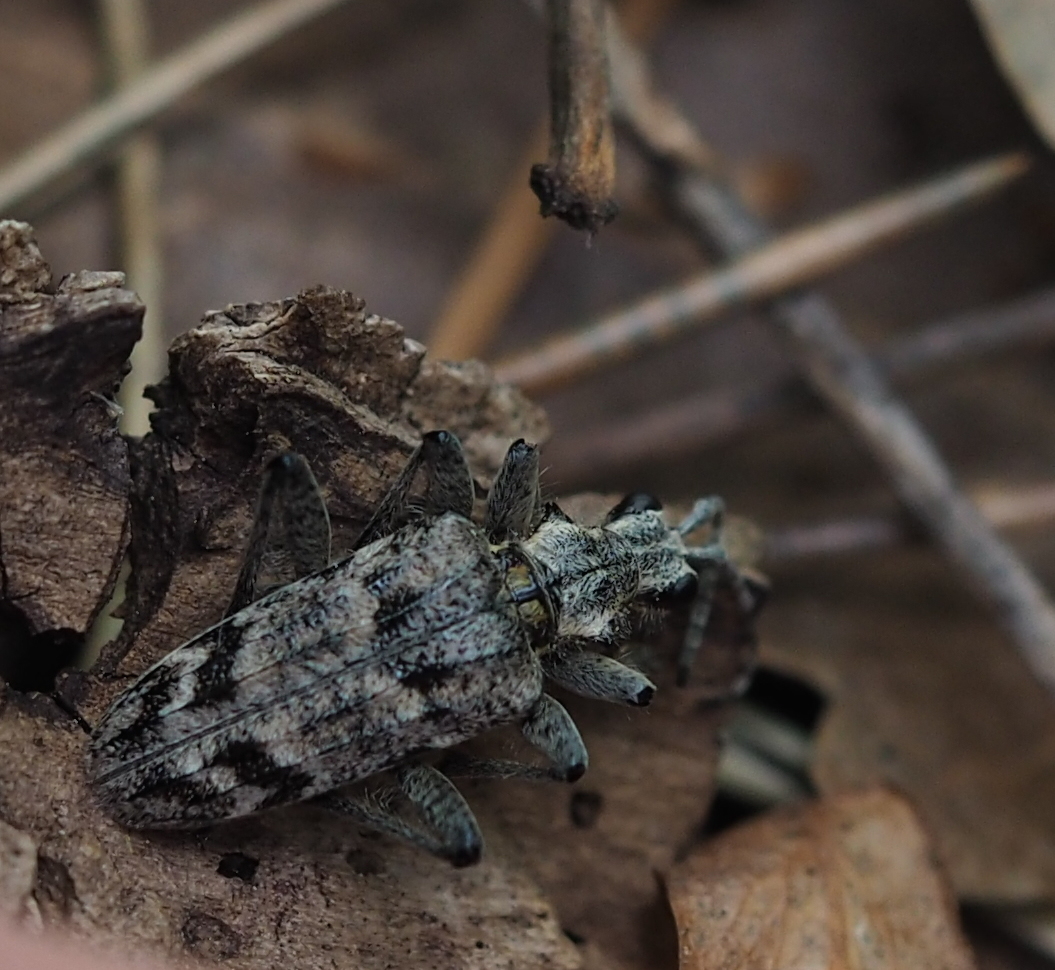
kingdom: Animalia
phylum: Arthropoda
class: Insecta
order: Coleoptera
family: Cerambycidae
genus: Rhagium
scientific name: Rhagium inquisitor
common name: Ribbed pine borer
